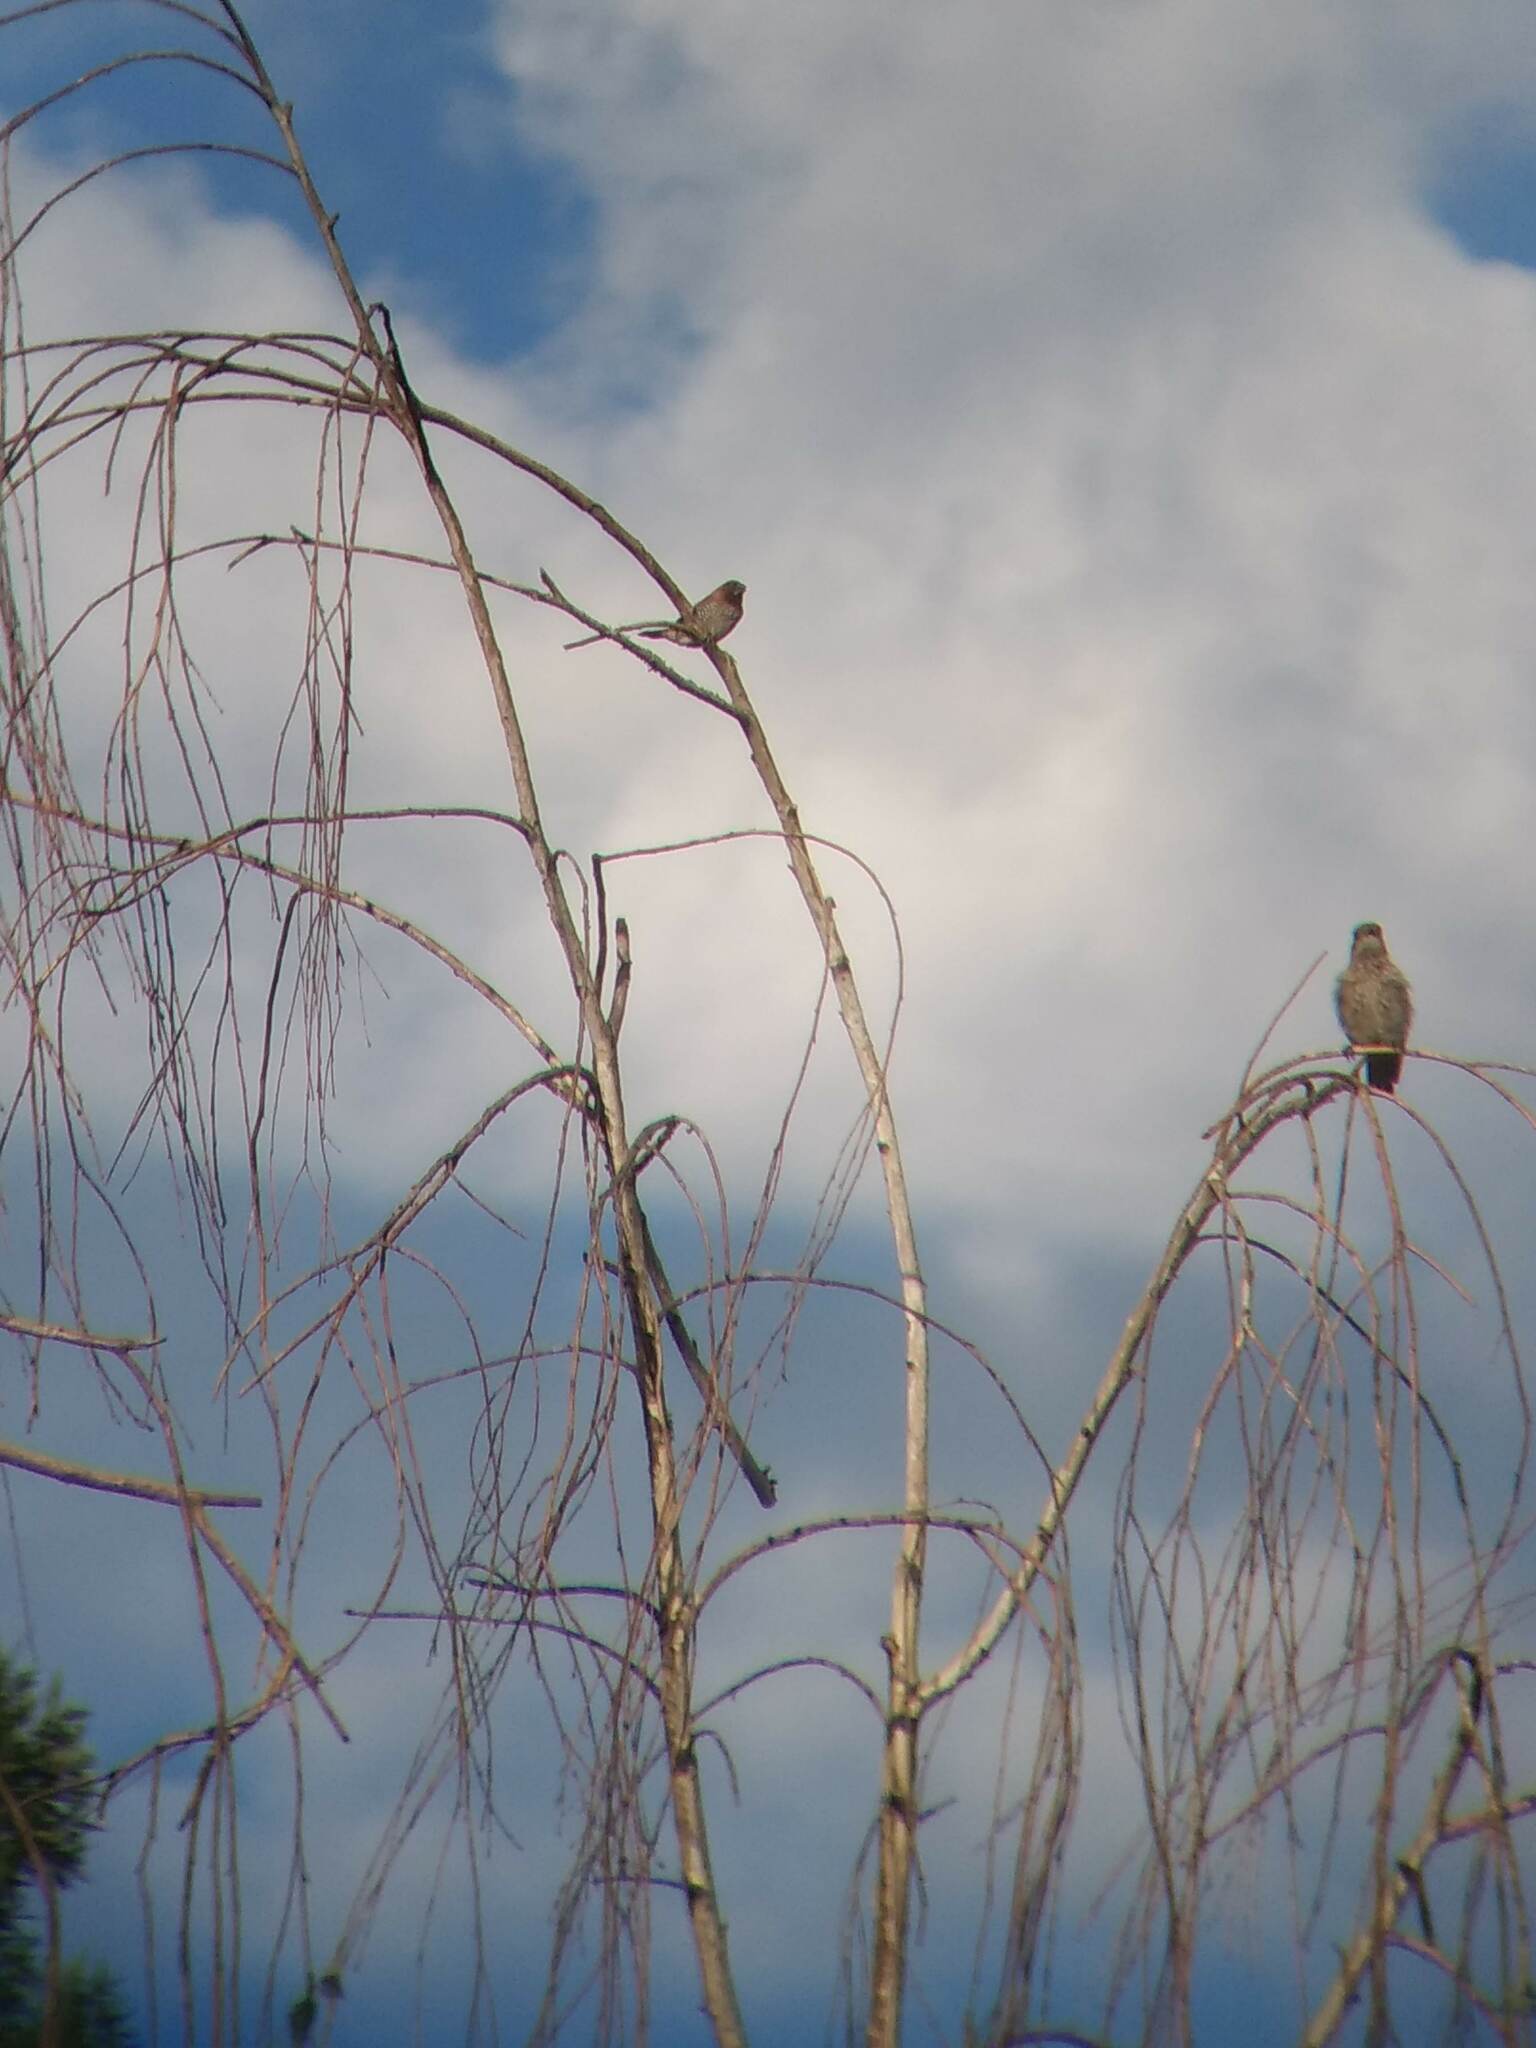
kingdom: Animalia
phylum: Chordata
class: Aves
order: Passeriformes
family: Estrildidae
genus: Lonchura
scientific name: Lonchura punctulata
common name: Scaly-breasted munia
